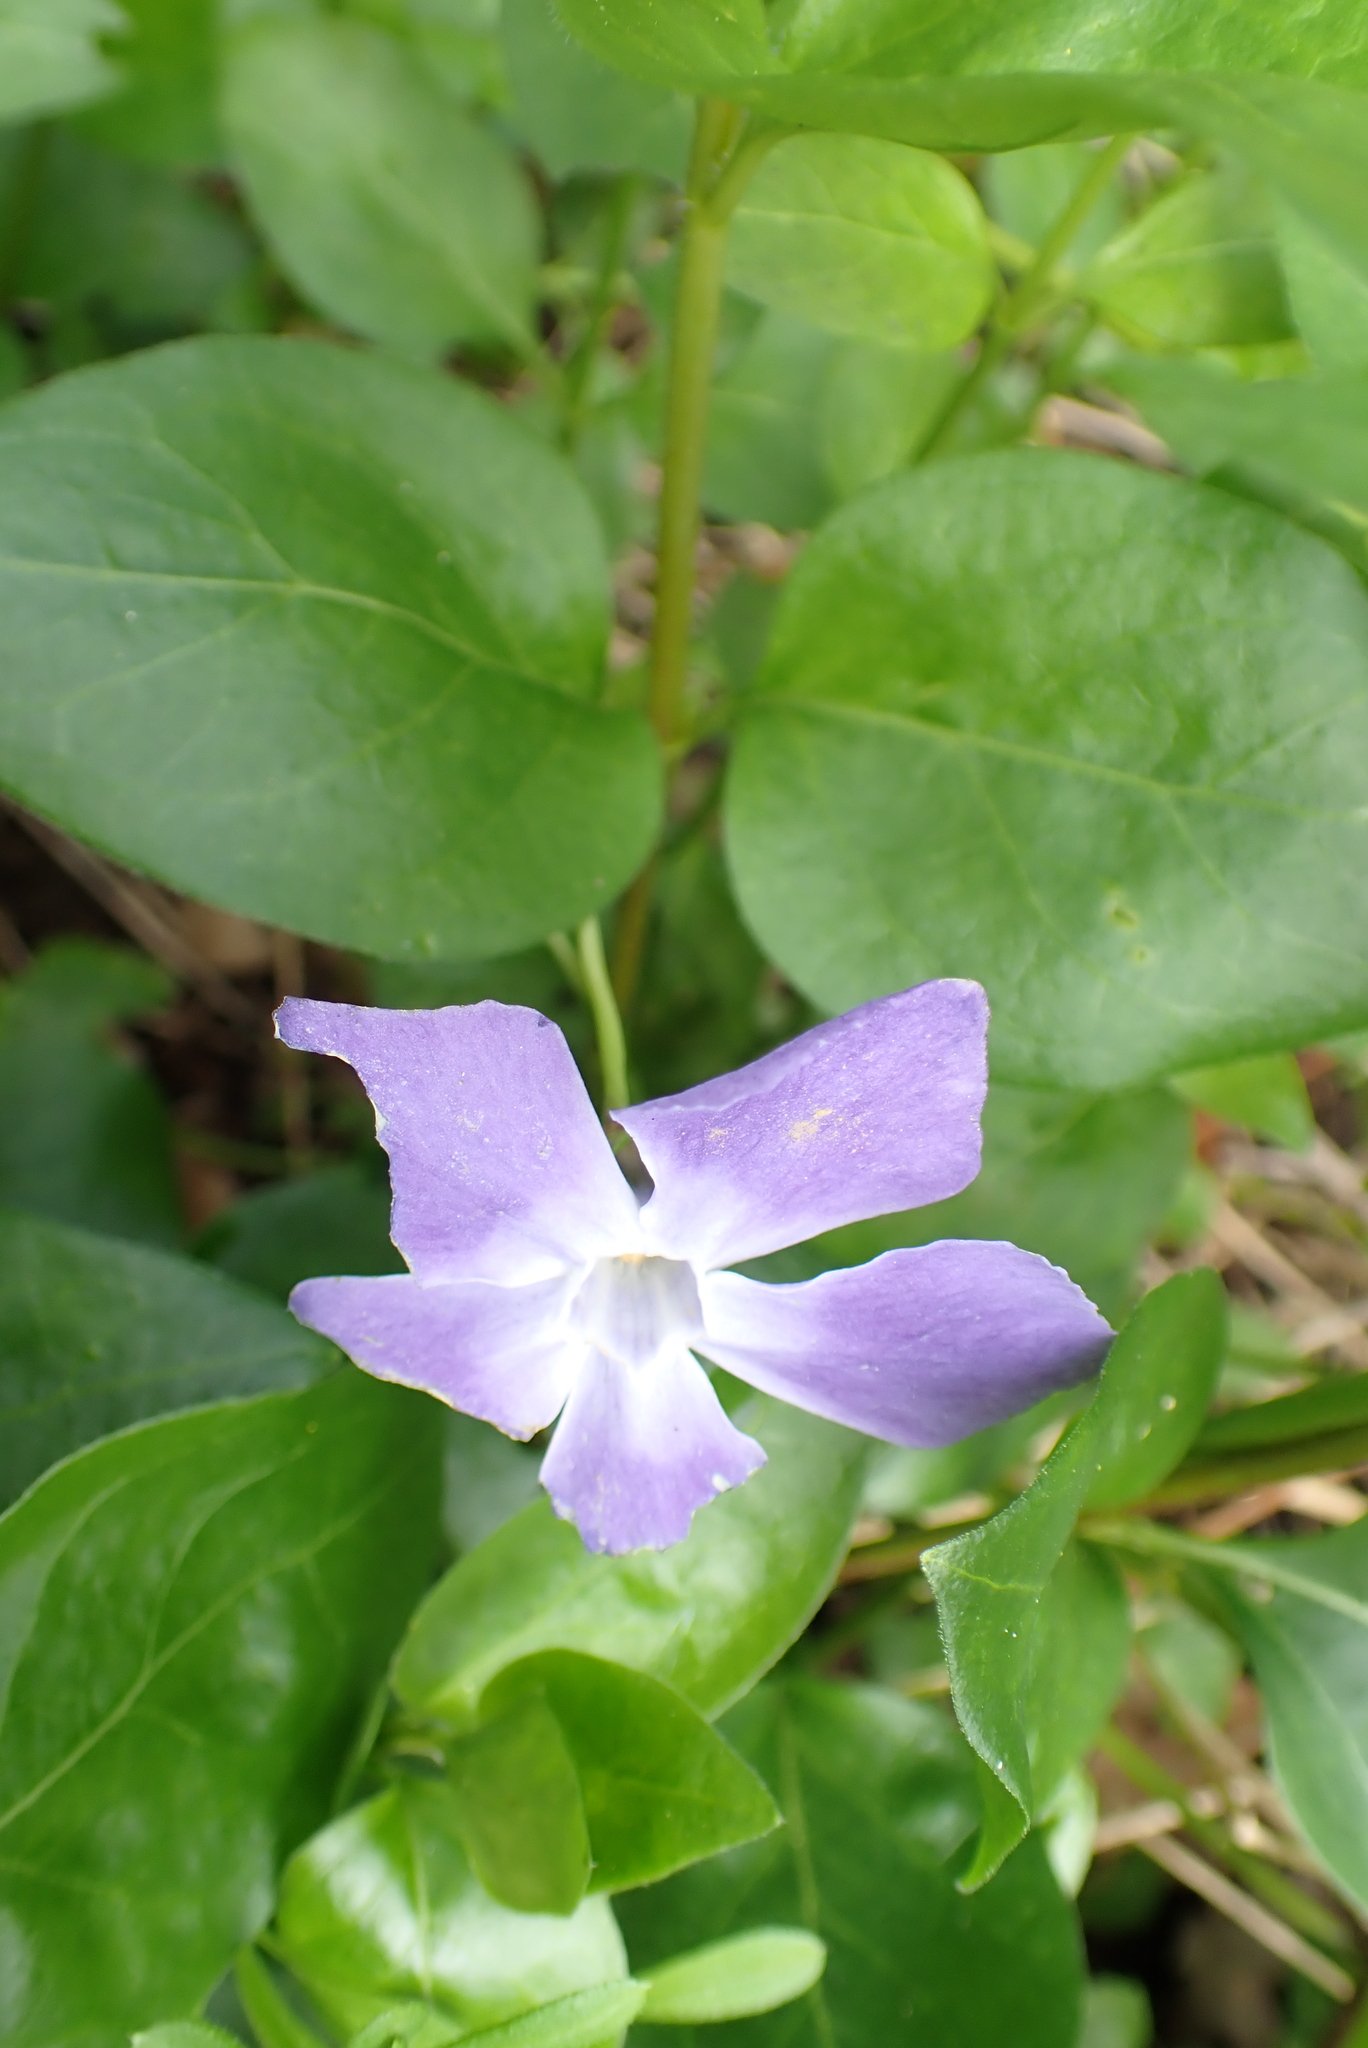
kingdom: Plantae
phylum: Tracheophyta
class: Magnoliopsida
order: Gentianales
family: Apocynaceae
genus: Vinca
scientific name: Vinca major
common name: Greater periwinkle
